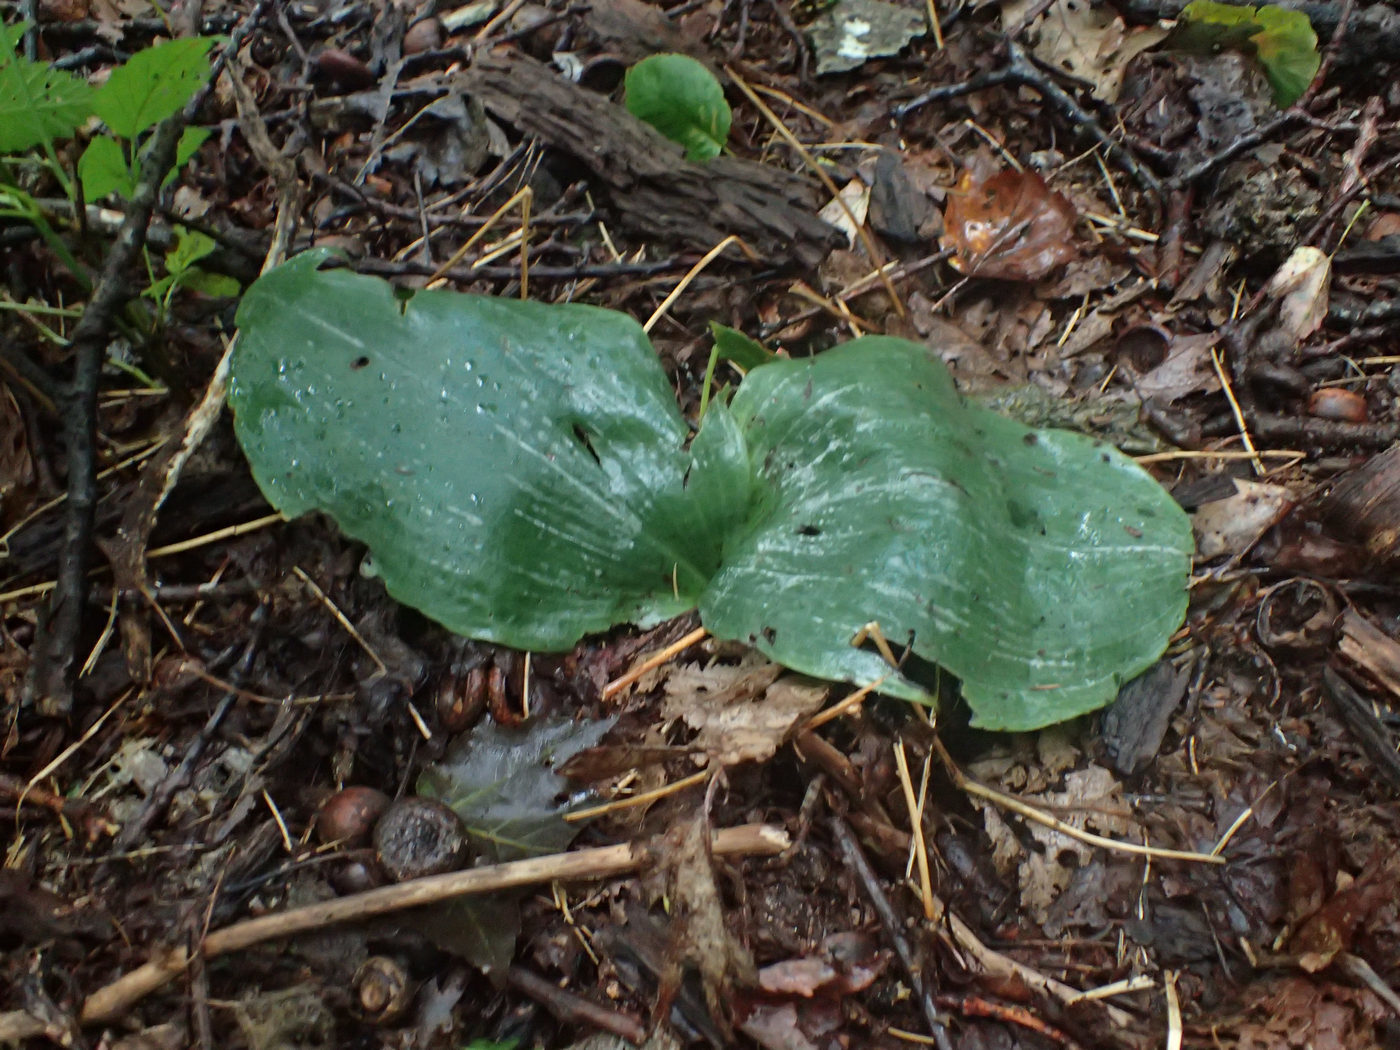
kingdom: Plantae
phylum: Tracheophyta
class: Liliopsida
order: Asparagales
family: Orchidaceae
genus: Platanthera
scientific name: Platanthera orbiculata
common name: Large round-leaved orchid
